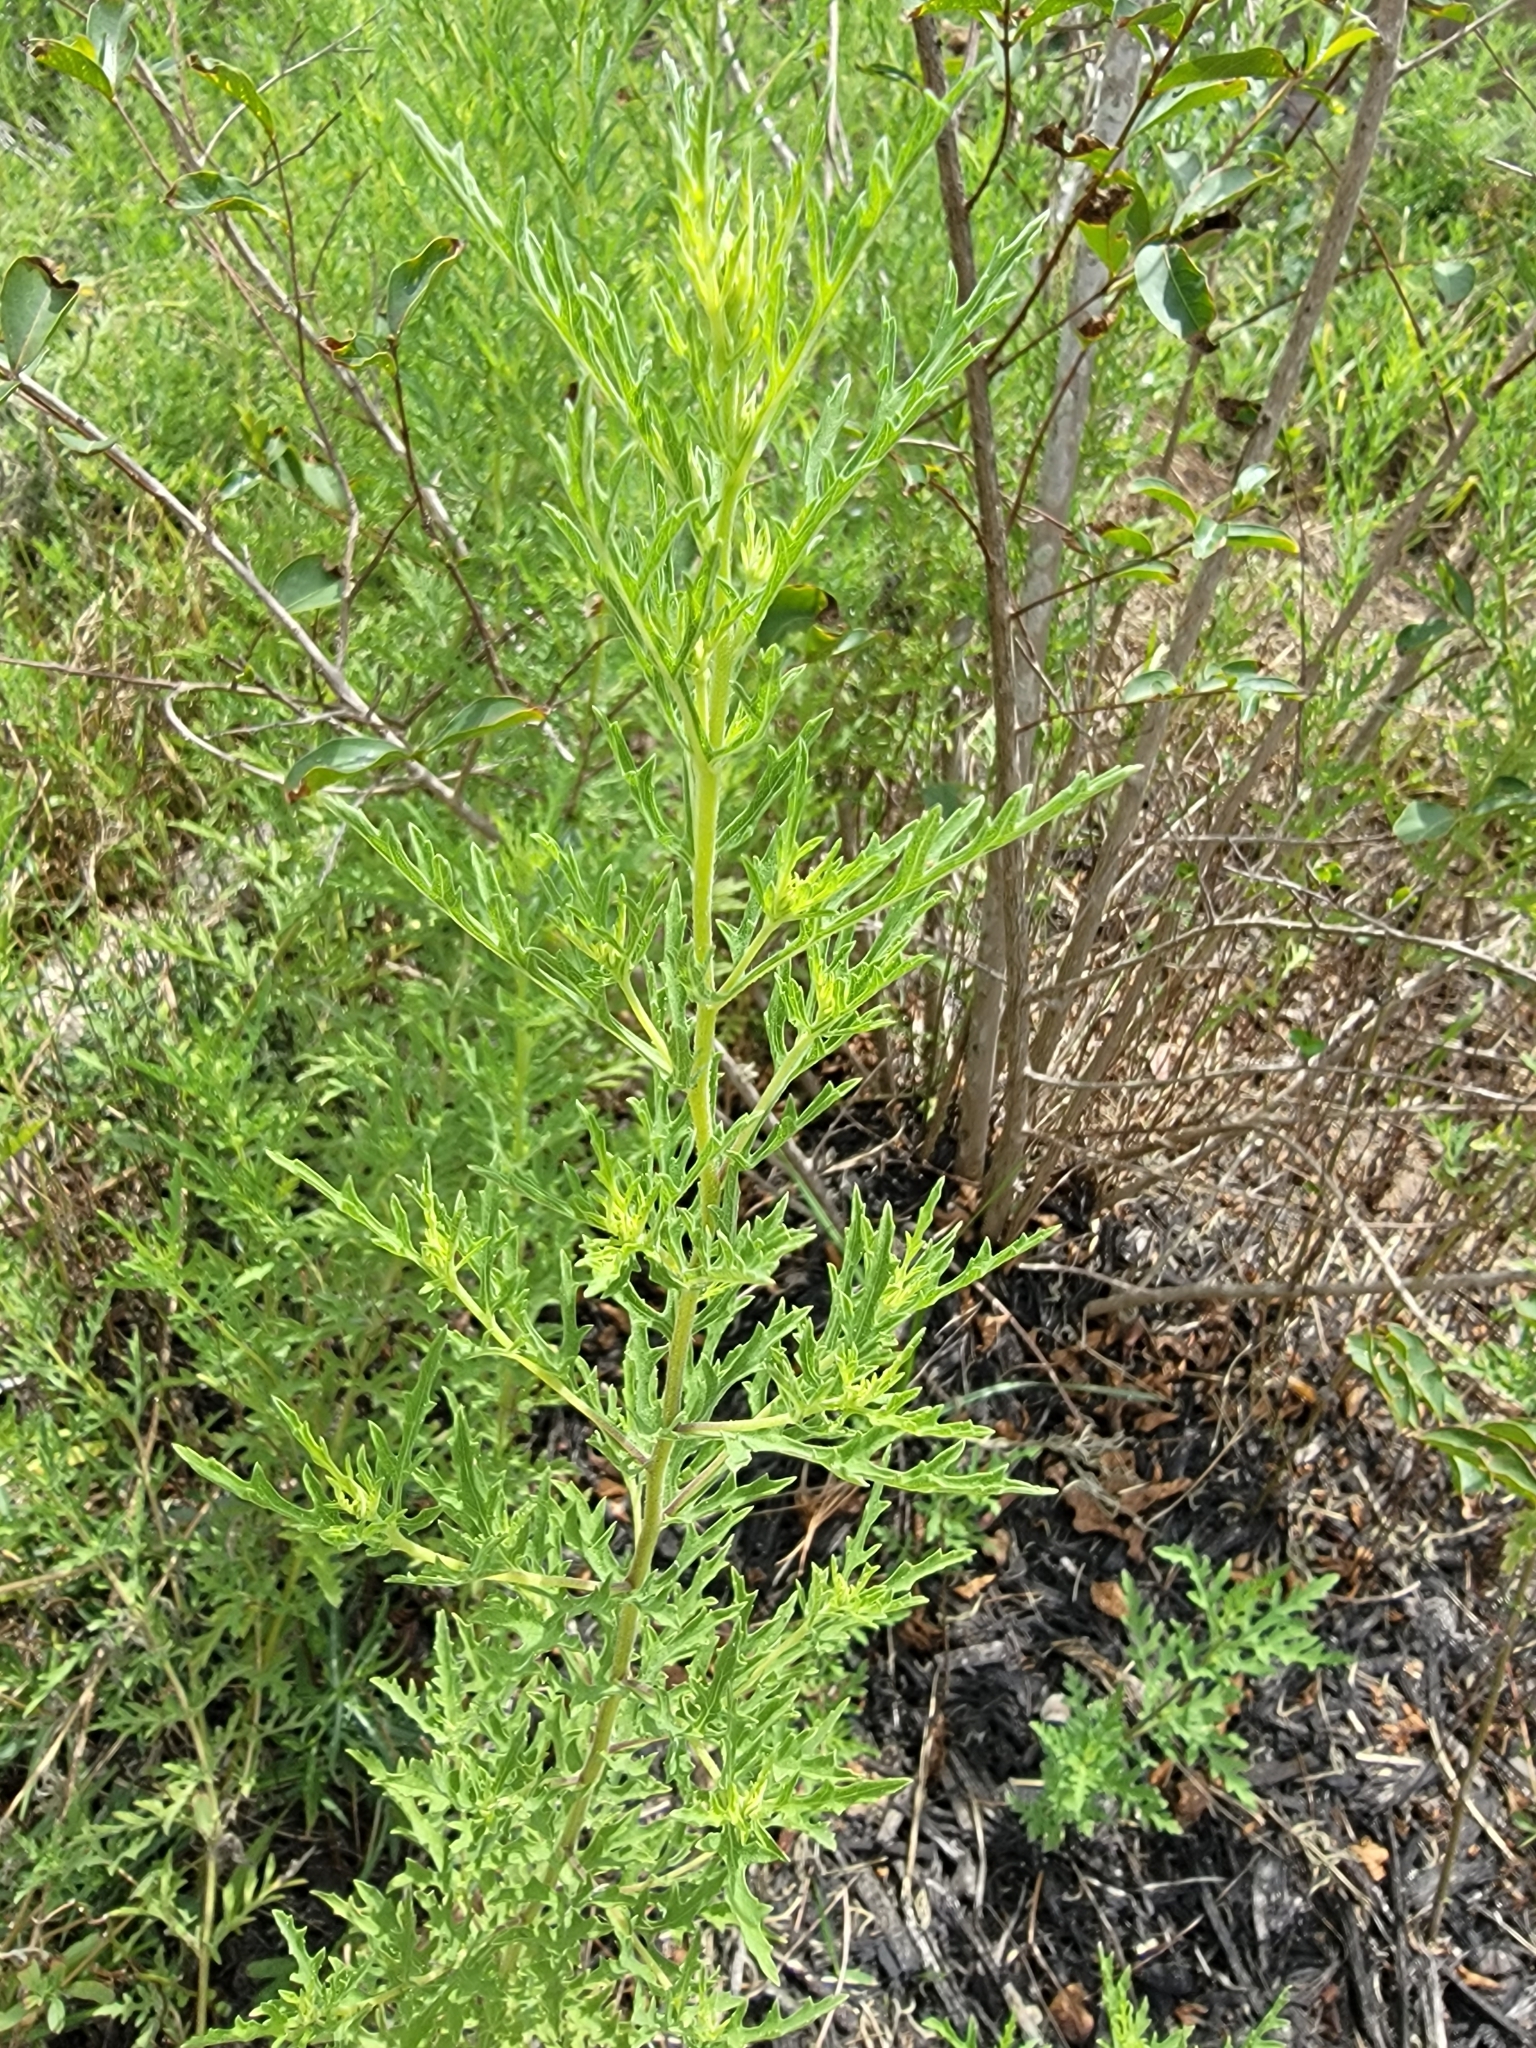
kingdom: Plantae
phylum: Tracheophyta
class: Magnoliopsida
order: Asterales
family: Asteraceae
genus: Ambrosia
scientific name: Ambrosia psilostachya
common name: Perennial ragweed
